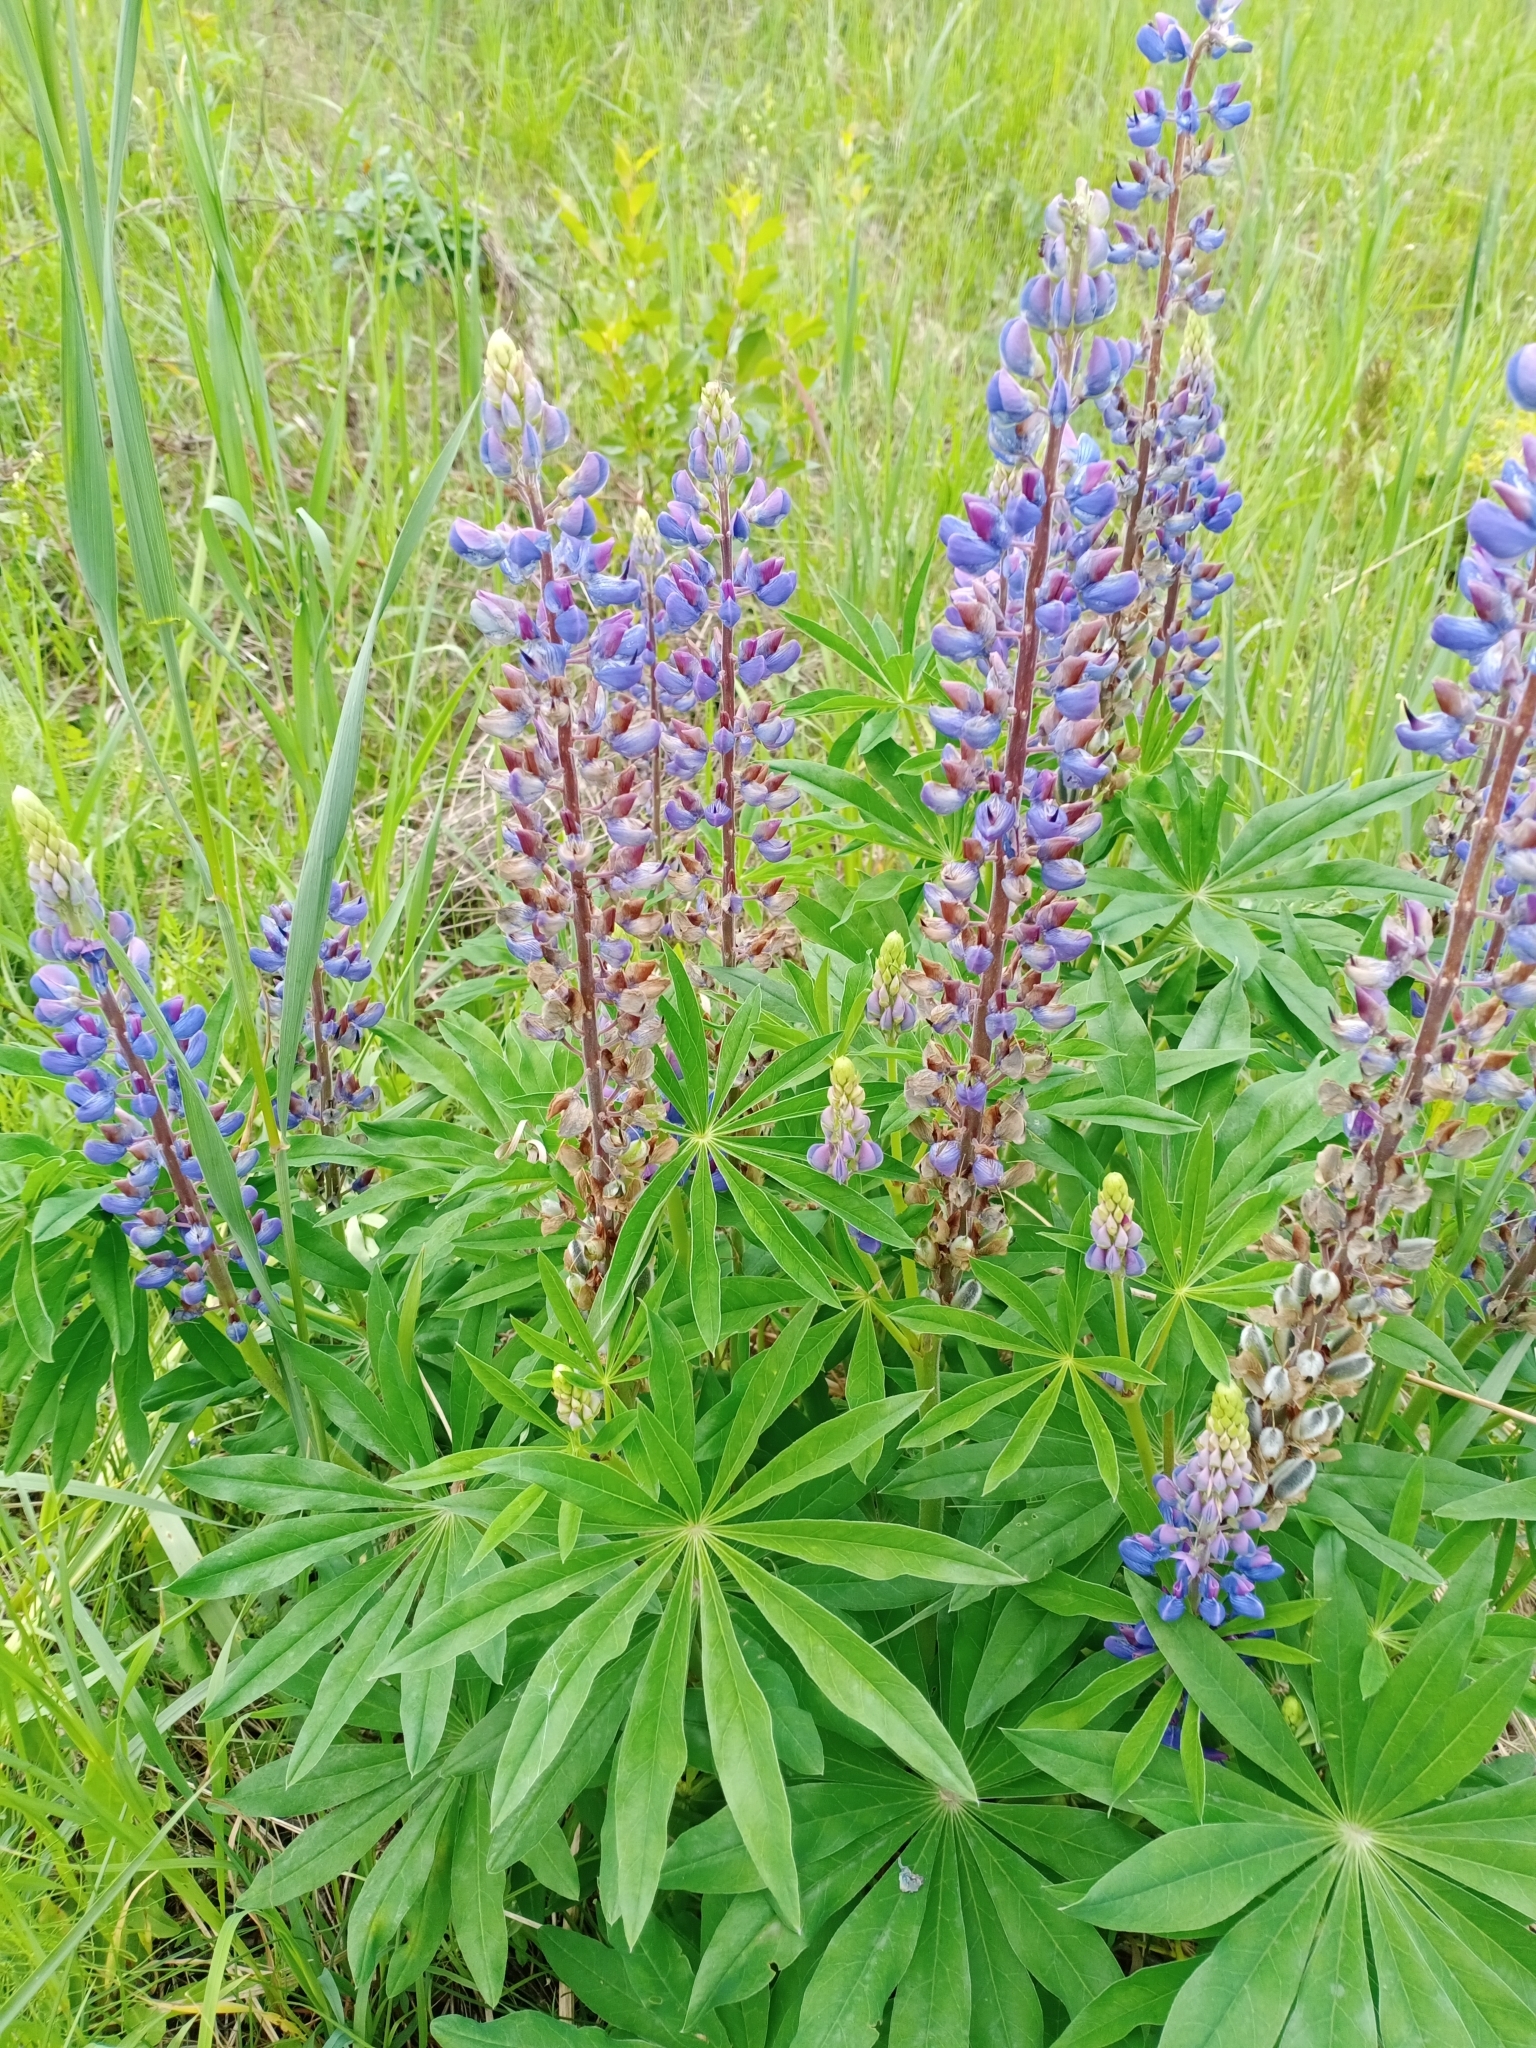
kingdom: Plantae
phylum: Tracheophyta
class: Magnoliopsida
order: Fabales
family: Fabaceae
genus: Lupinus
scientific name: Lupinus polyphyllus
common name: Garden lupin
